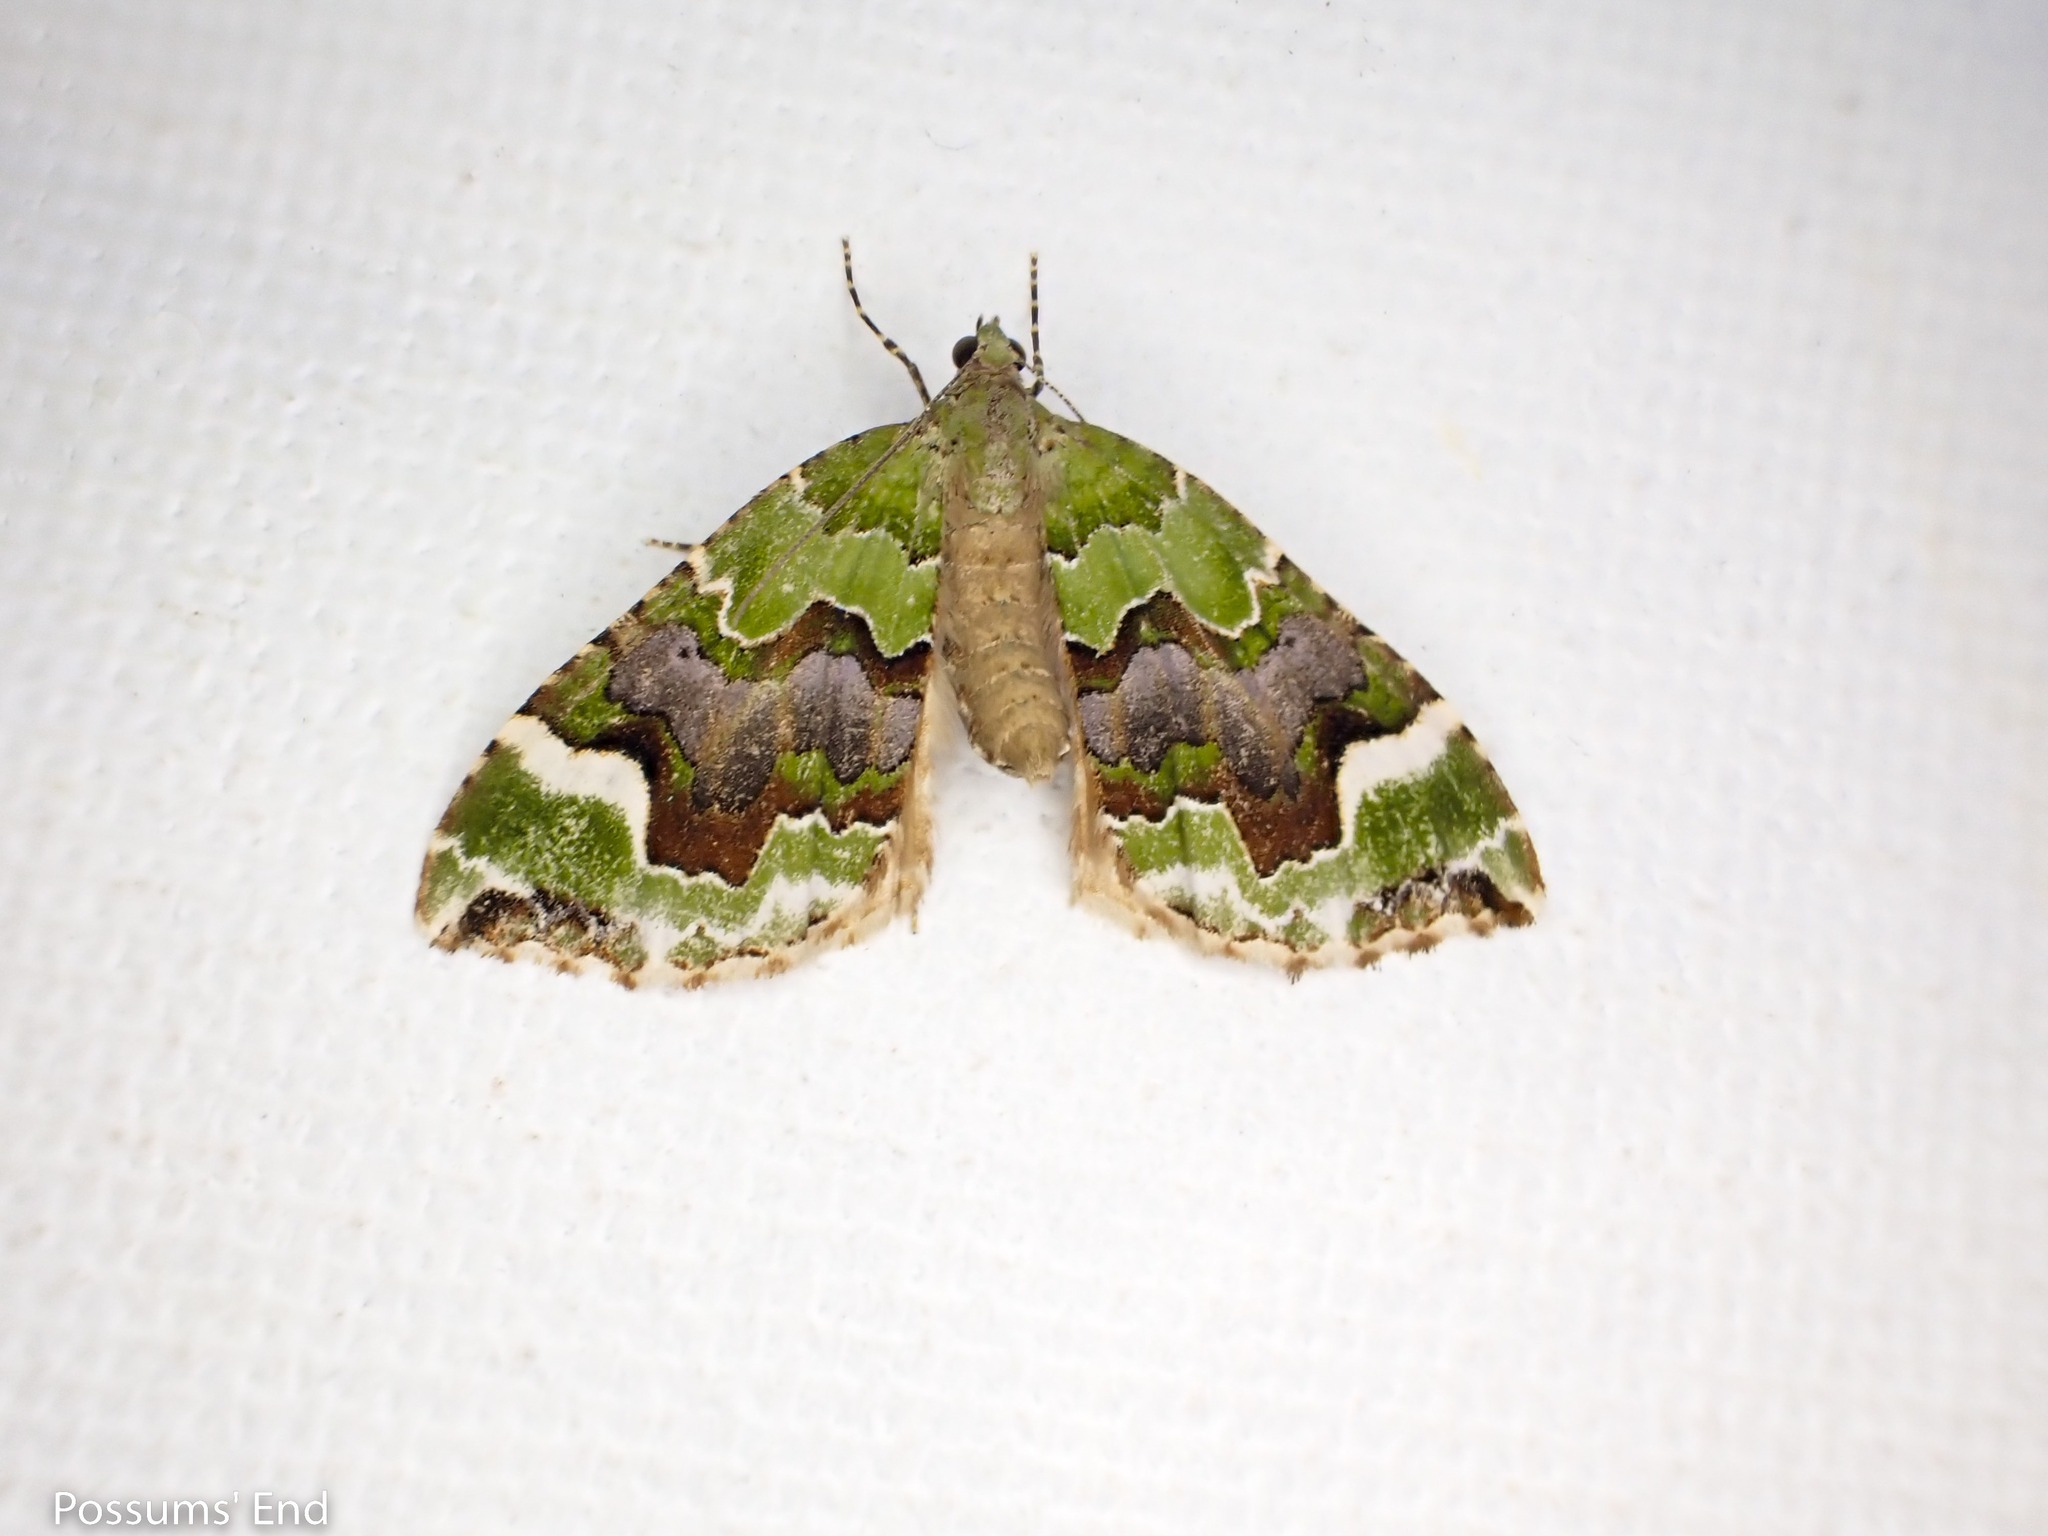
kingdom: Animalia
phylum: Arthropoda
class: Insecta
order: Lepidoptera
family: Geometridae
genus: Hydriomena
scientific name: Hydriomena purpurifera
